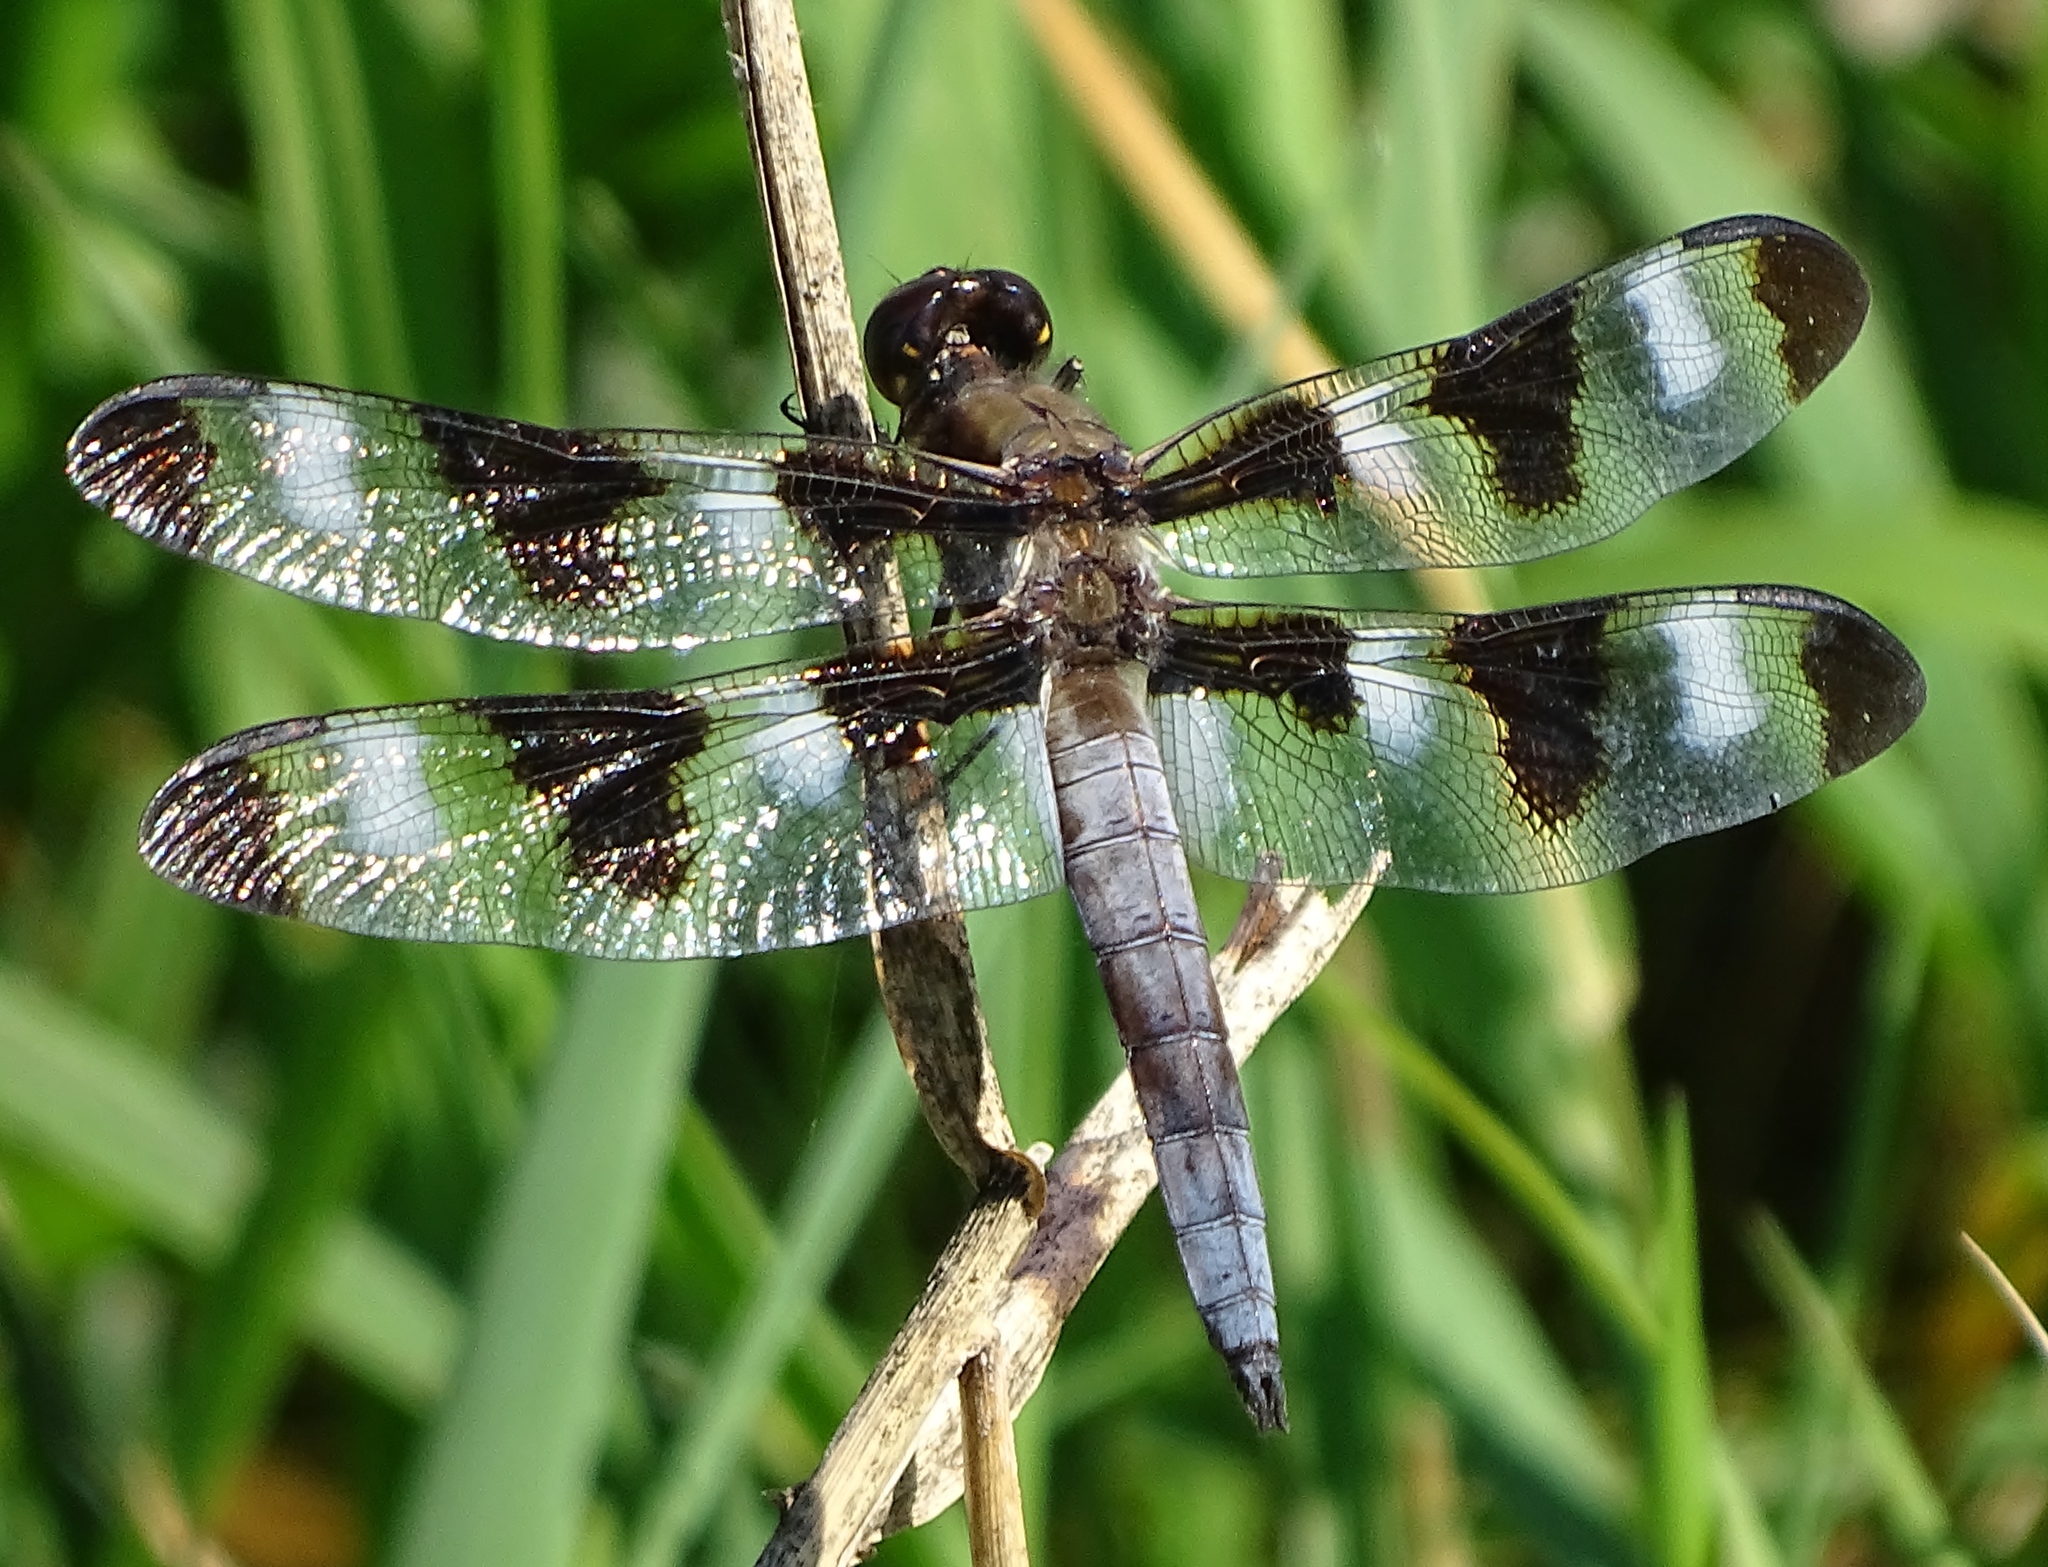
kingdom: Animalia
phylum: Arthropoda
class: Insecta
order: Odonata
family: Libellulidae
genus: Libellula
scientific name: Libellula pulchella
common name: Twelve-spotted skimmer
